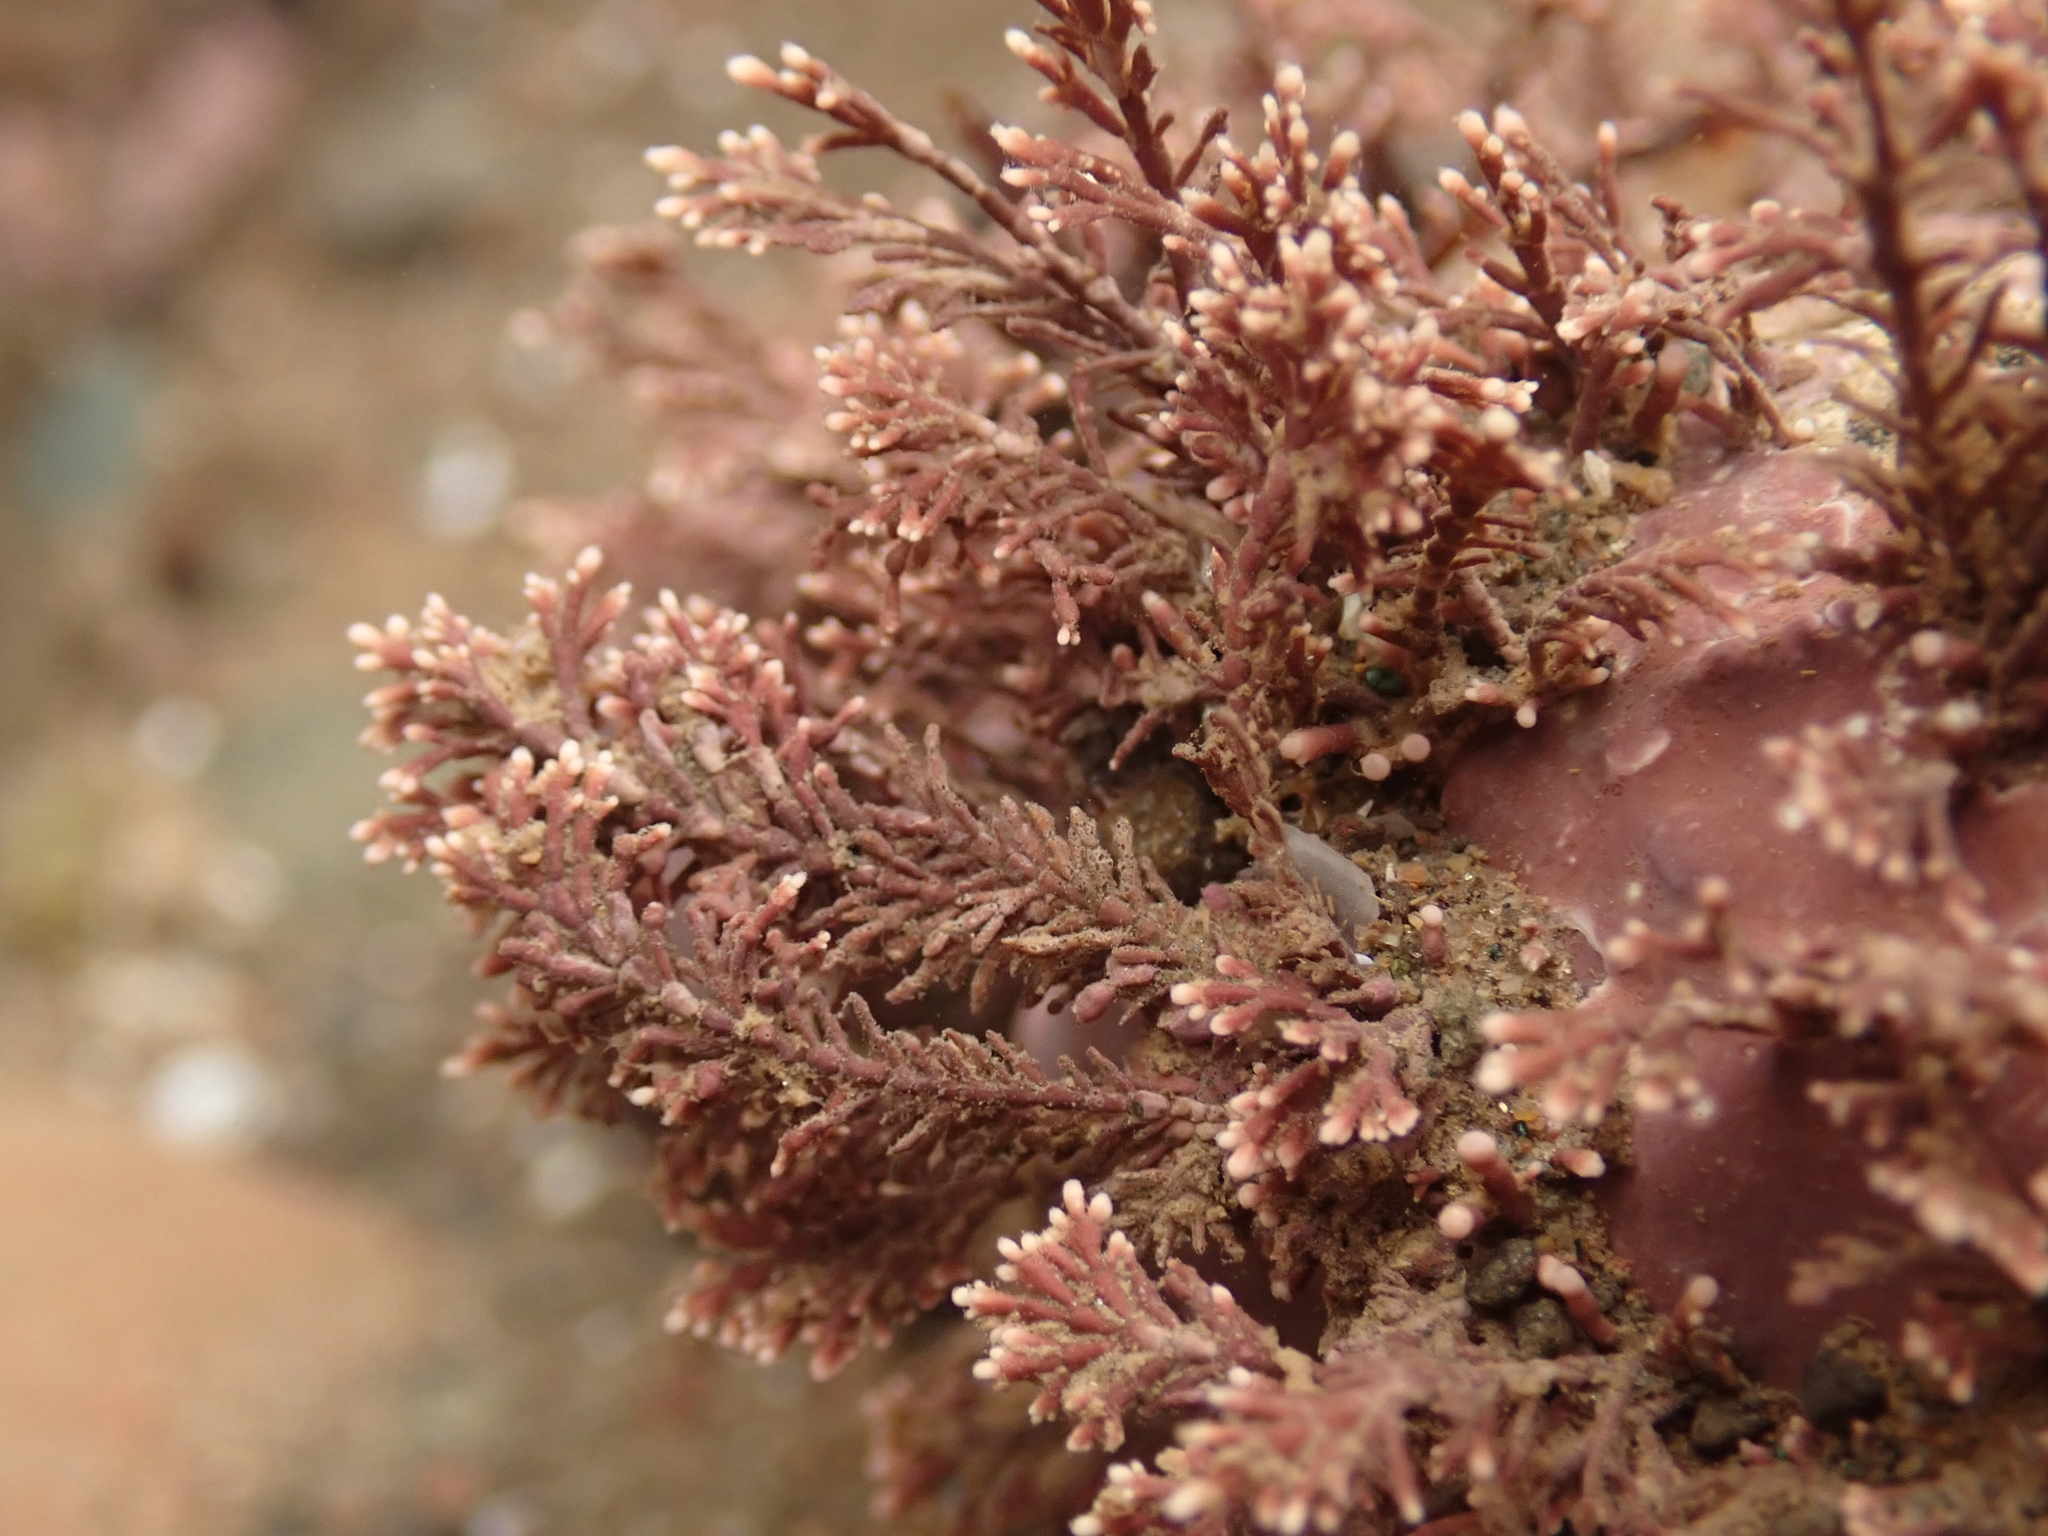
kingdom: Plantae
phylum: Rhodophyta
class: Florideophyceae
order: Corallinales
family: Corallinaceae
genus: Corallina
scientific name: Corallina officinalis
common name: Coral weed
